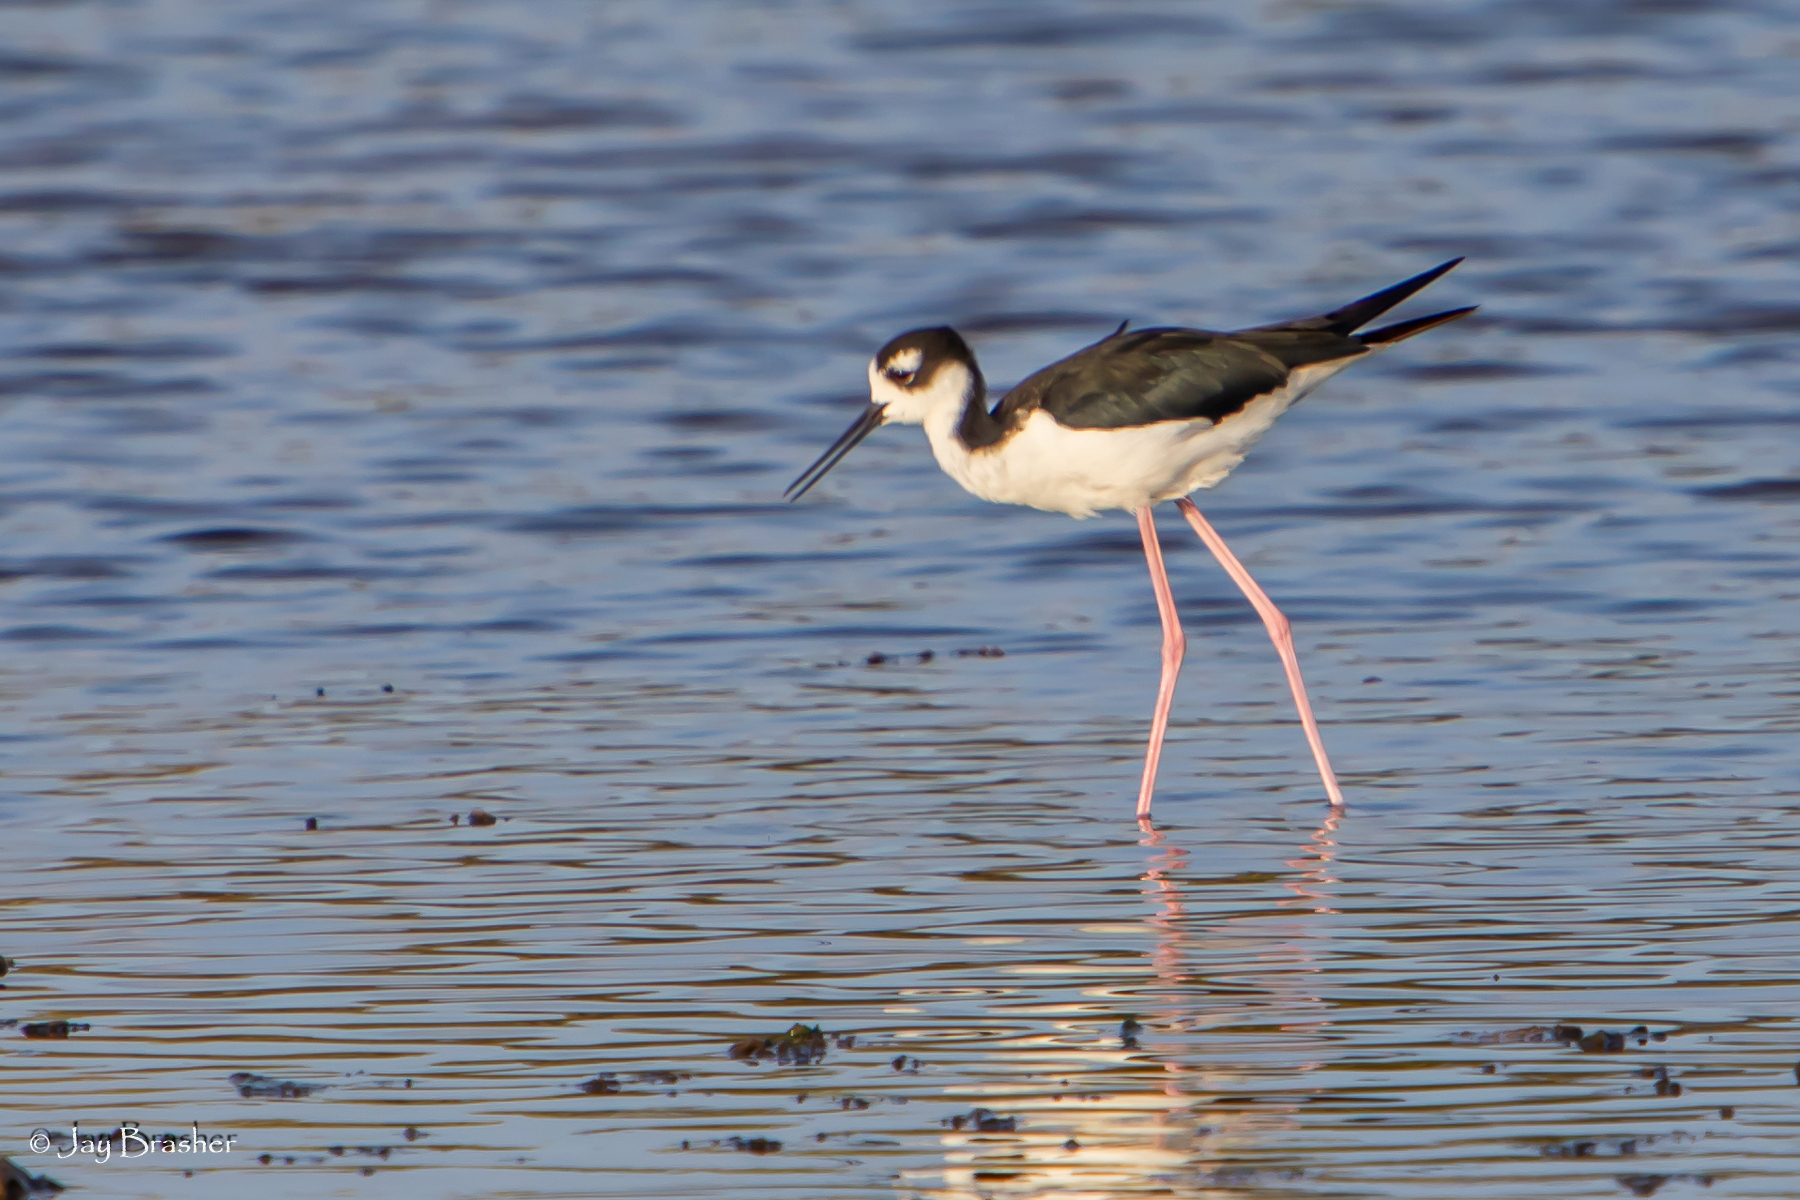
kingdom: Animalia
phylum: Chordata
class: Aves
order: Charadriiformes
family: Recurvirostridae
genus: Himantopus
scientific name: Himantopus mexicanus
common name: Black-necked stilt
